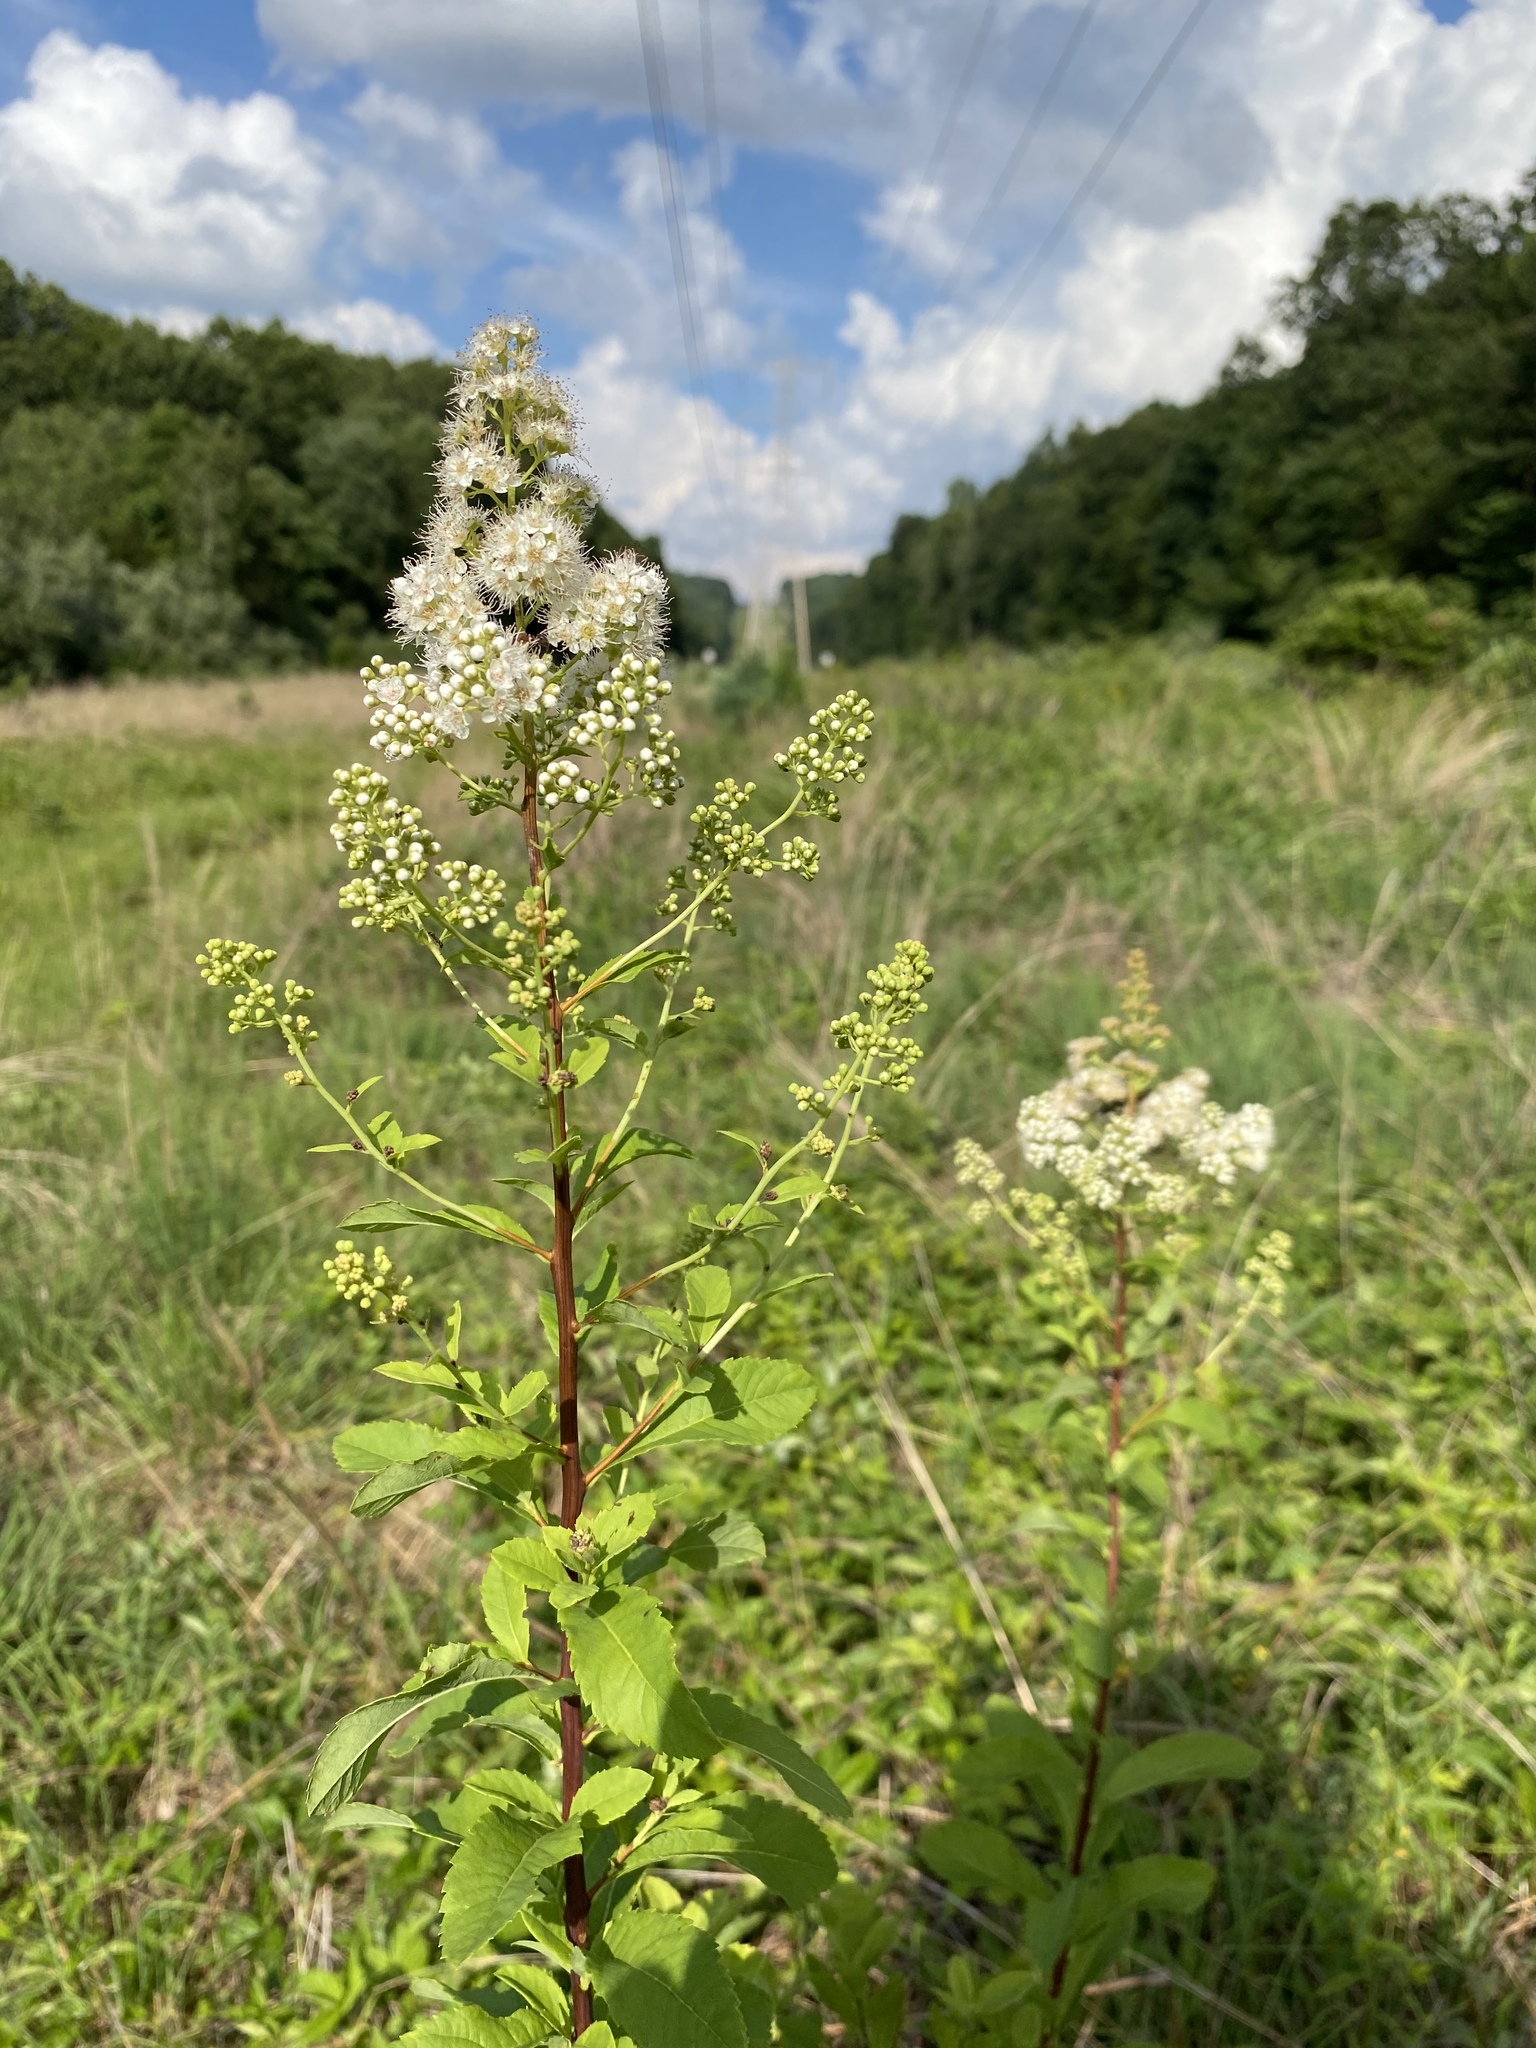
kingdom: Plantae
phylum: Tracheophyta
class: Magnoliopsida
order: Rosales
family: Rosaceae
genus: Spiraea
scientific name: Spiraea alba
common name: Pale bridewort
